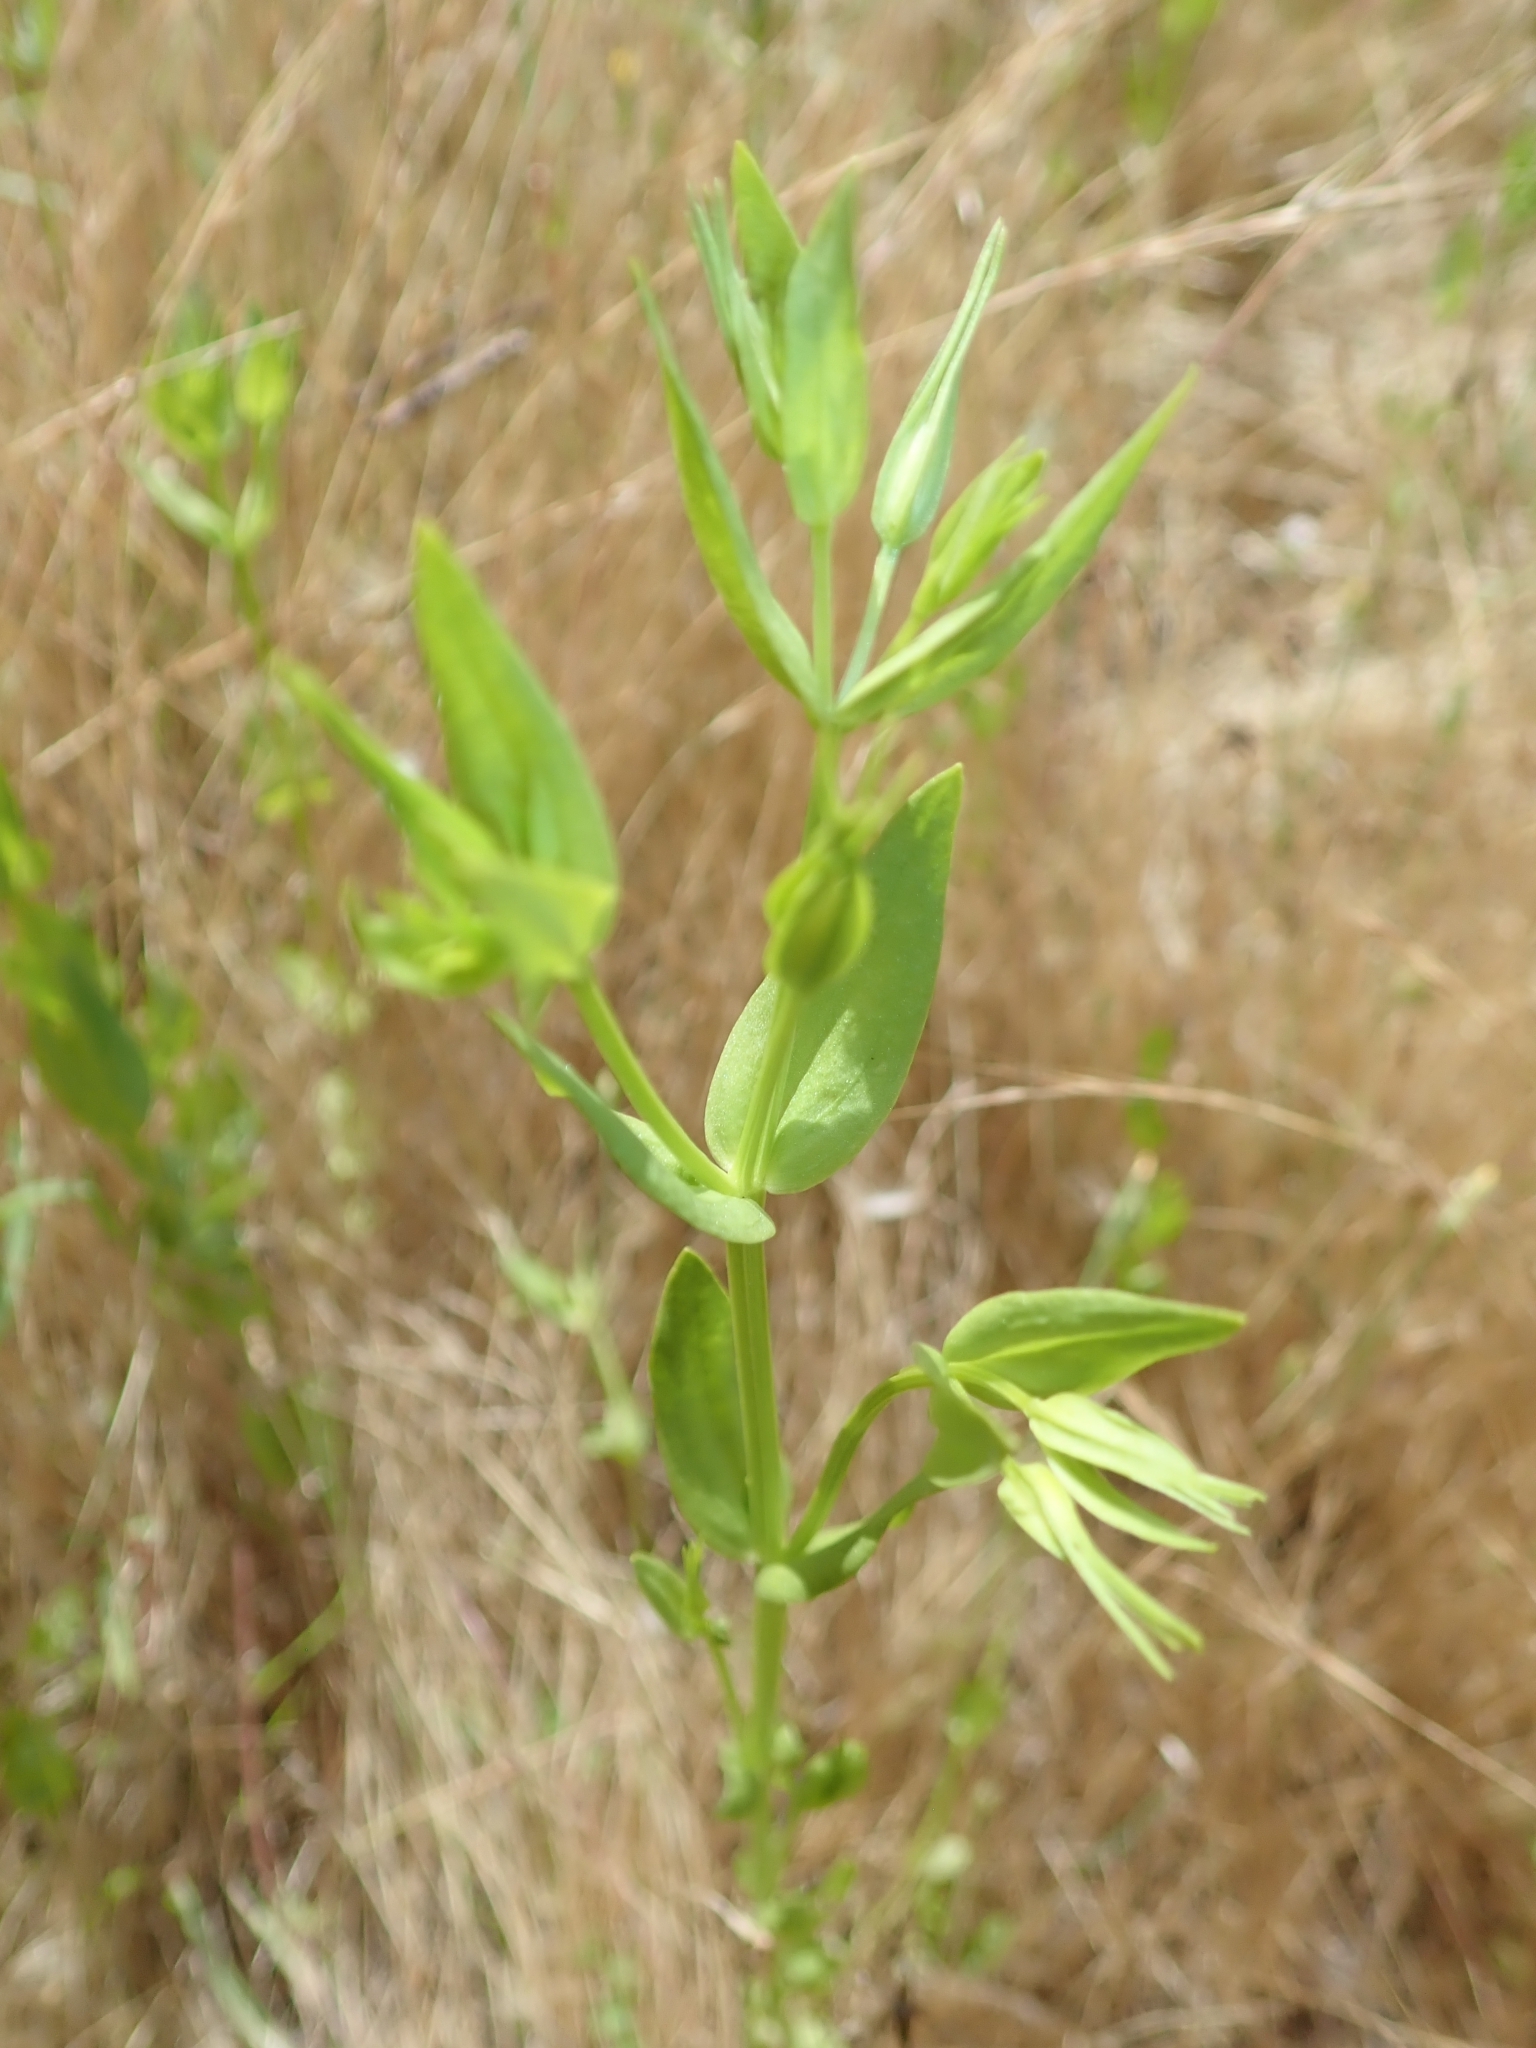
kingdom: Plantae
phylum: Tracheophyta
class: Magnoliopsida
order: Gentianales
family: Gentianaceae
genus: Zeltnera
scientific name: Zeltnera venusta
